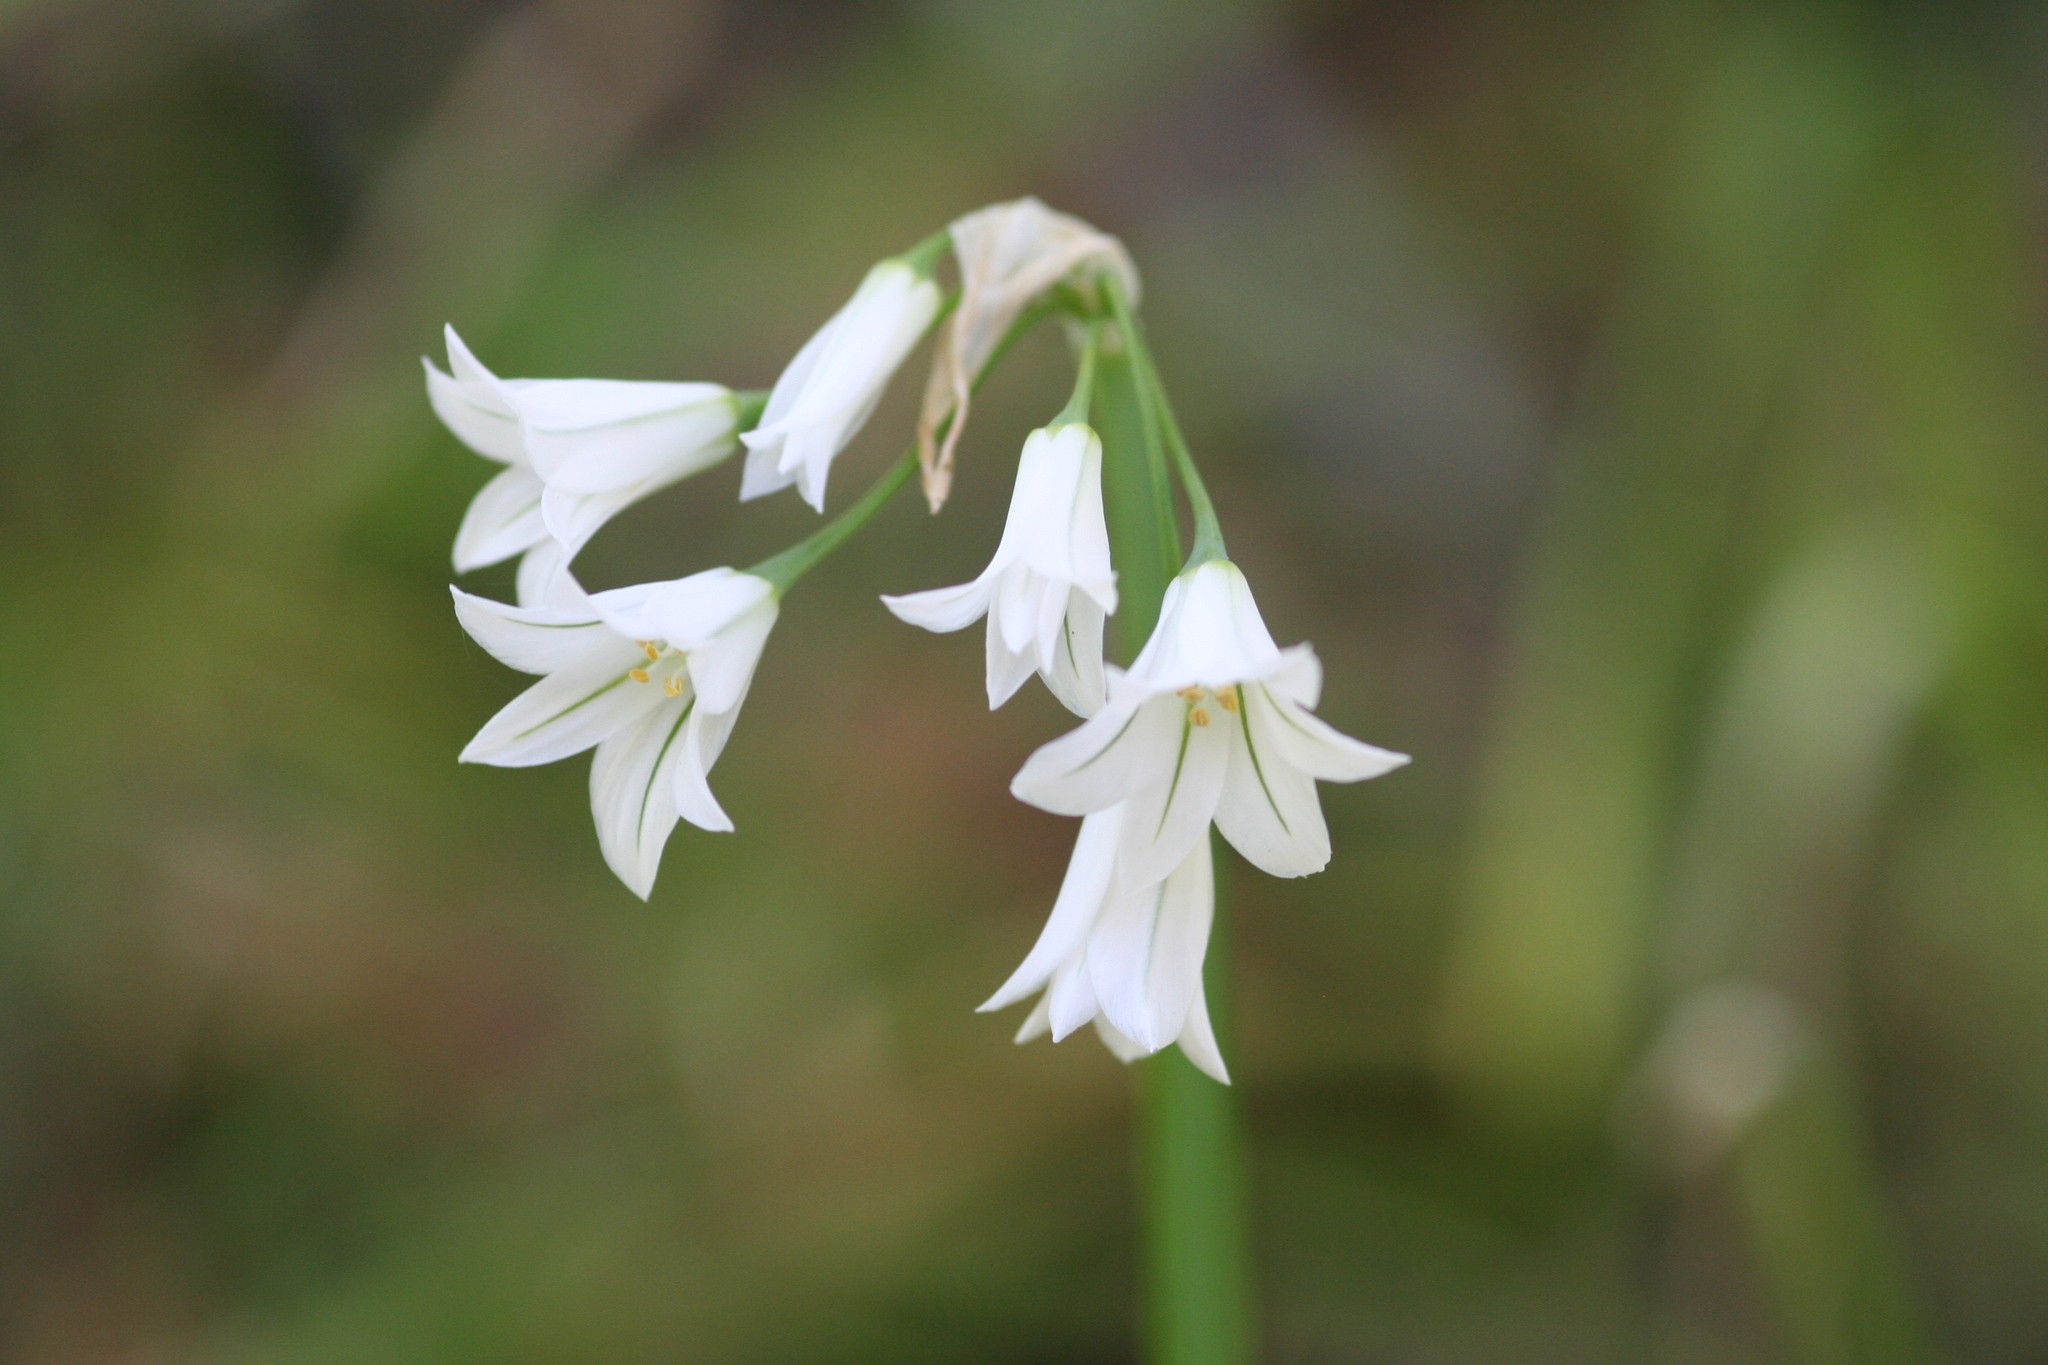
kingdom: Plantae
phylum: Tracheophyta
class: Liliopsida
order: Asparagales
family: Amaryllidaceae
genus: Allium
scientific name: Allium triquetrum
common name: Three-cornered garlic
